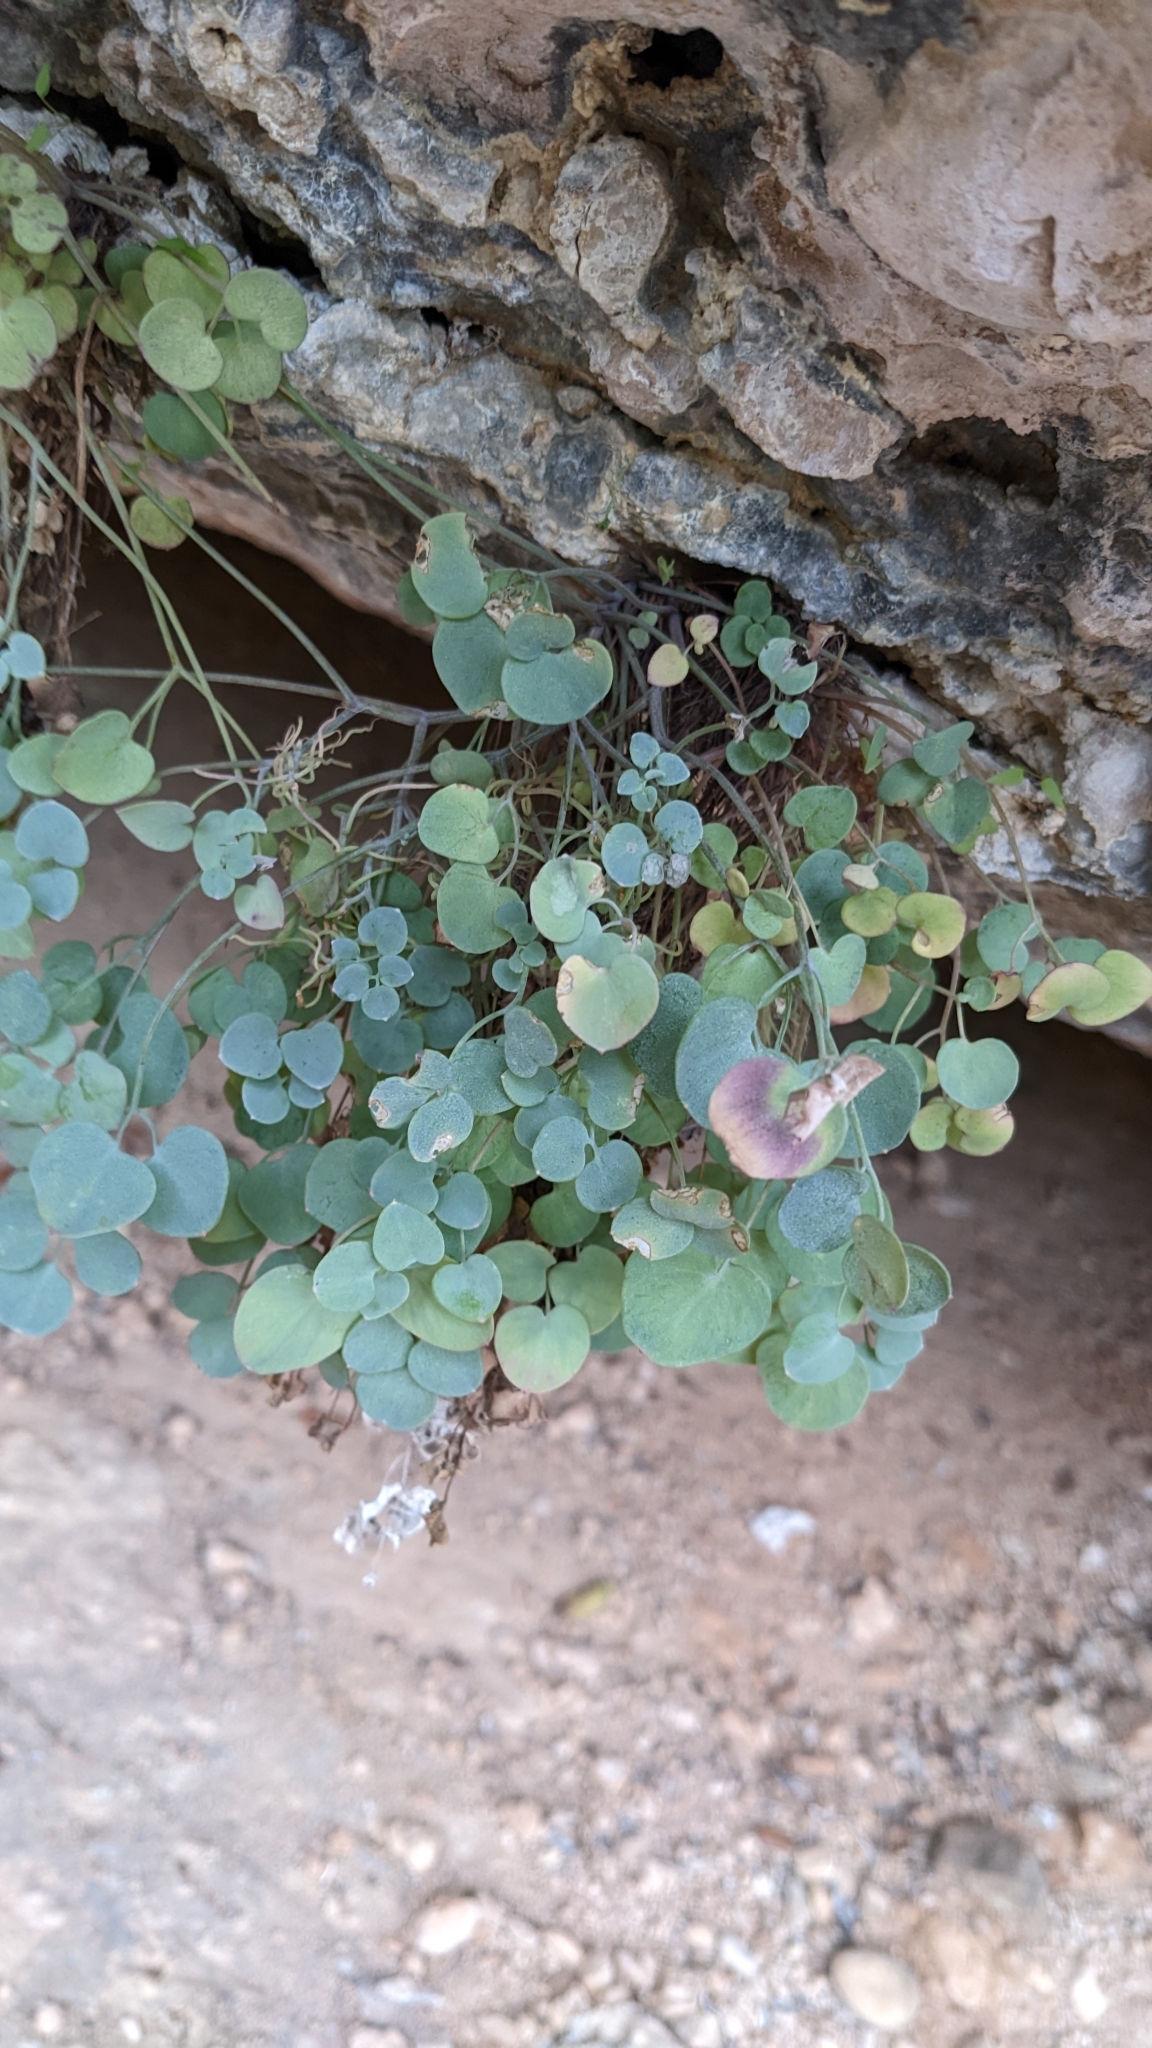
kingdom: Plantae
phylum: Tracheophyta
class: Magnoliopsida
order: Ranunculales
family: Papaveraceae
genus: Sarcocapnos
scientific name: Sarcocapnos enneaphylla
